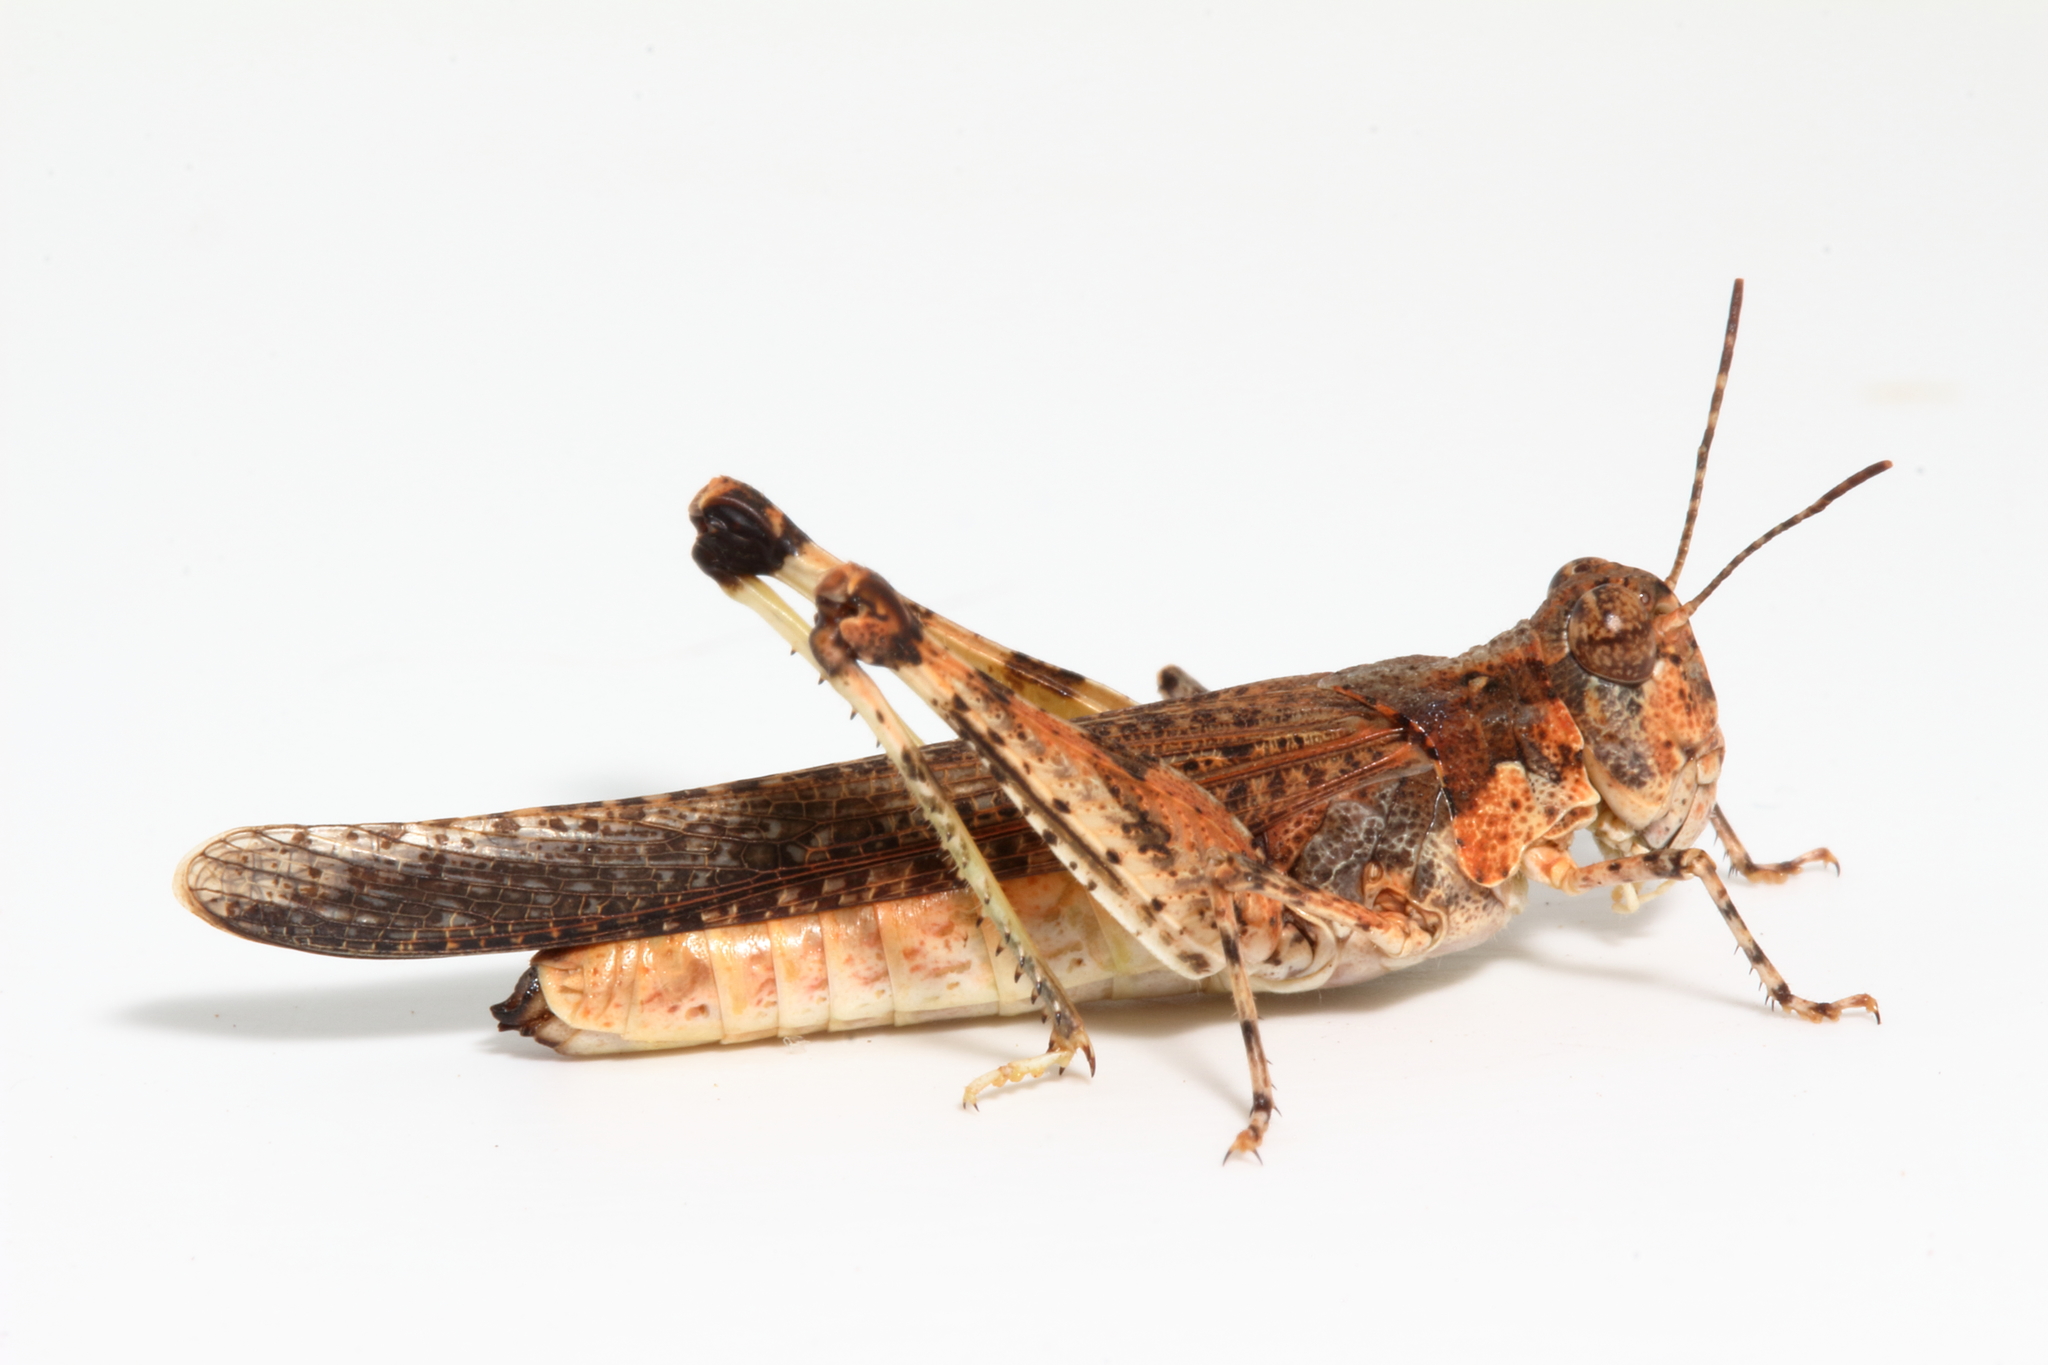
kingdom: Animalia
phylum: Arthropoda
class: Insecta
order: Orthoptera
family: Acrididae
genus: Pycnostictus
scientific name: Pycnostictus seriatus
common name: Common bandwing
